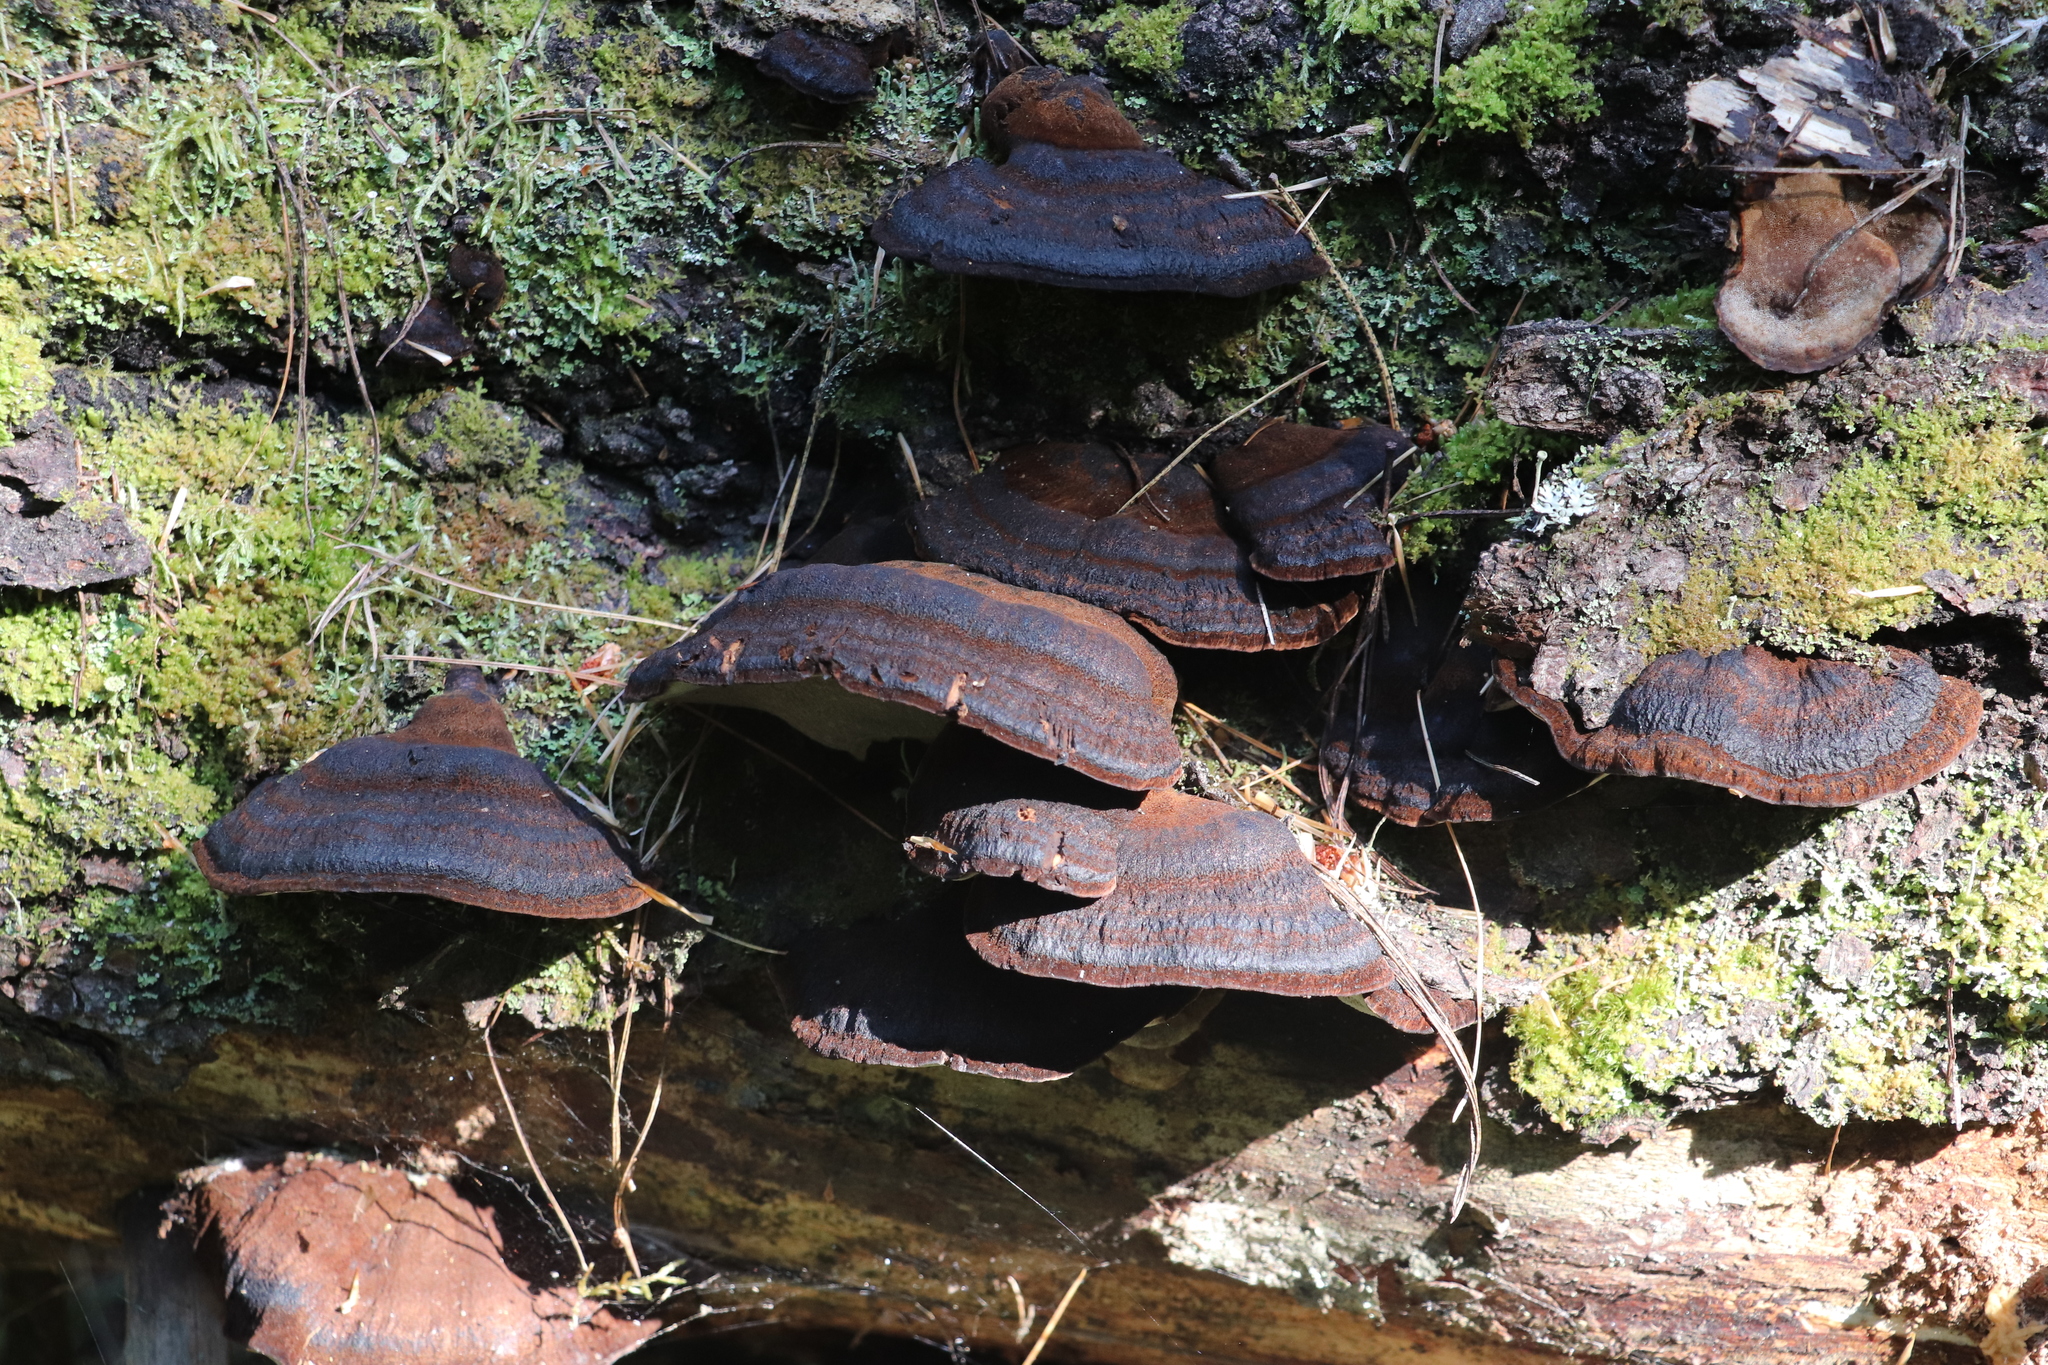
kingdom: Fungi
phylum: Basidiomycota
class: Agaricomycetes
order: Polyporales
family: Ischnodermataceae
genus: Ischnoderma
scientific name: Ischnoderma benzoinum
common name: Benzoin bracket
